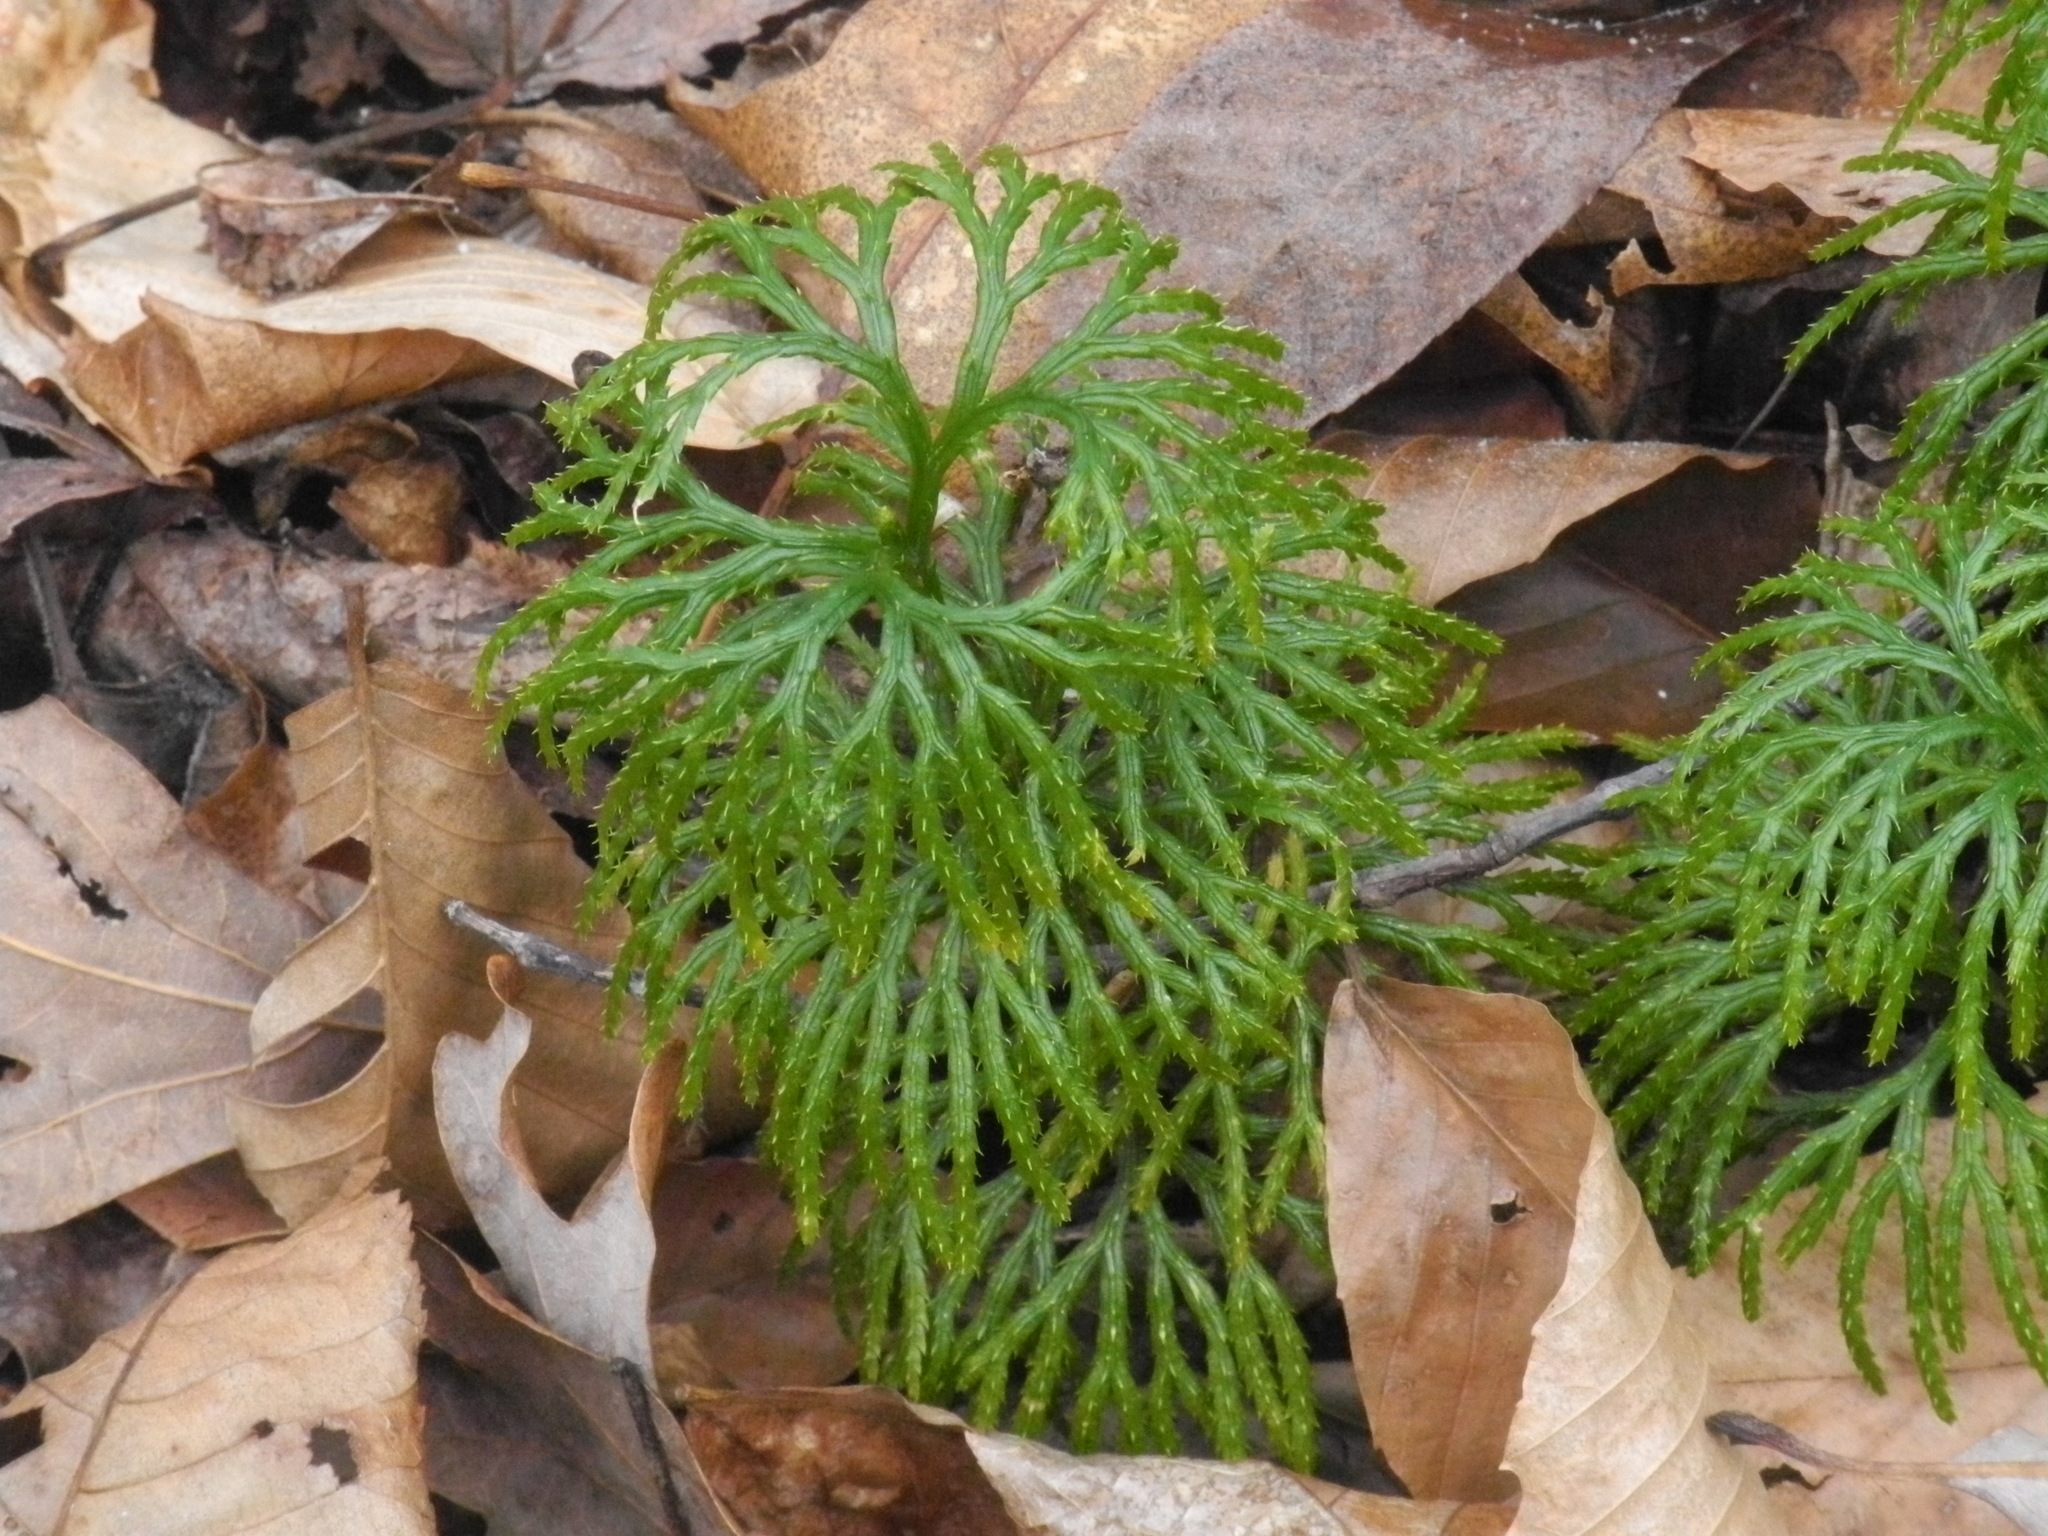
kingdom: Plantae
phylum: Tracheophyta
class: Lycopodiopsida
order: Lycopodiales
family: Lycopodiaceae
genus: Diphasiastrum
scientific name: Diphasiastrum digitatum
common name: Southern running-pine
